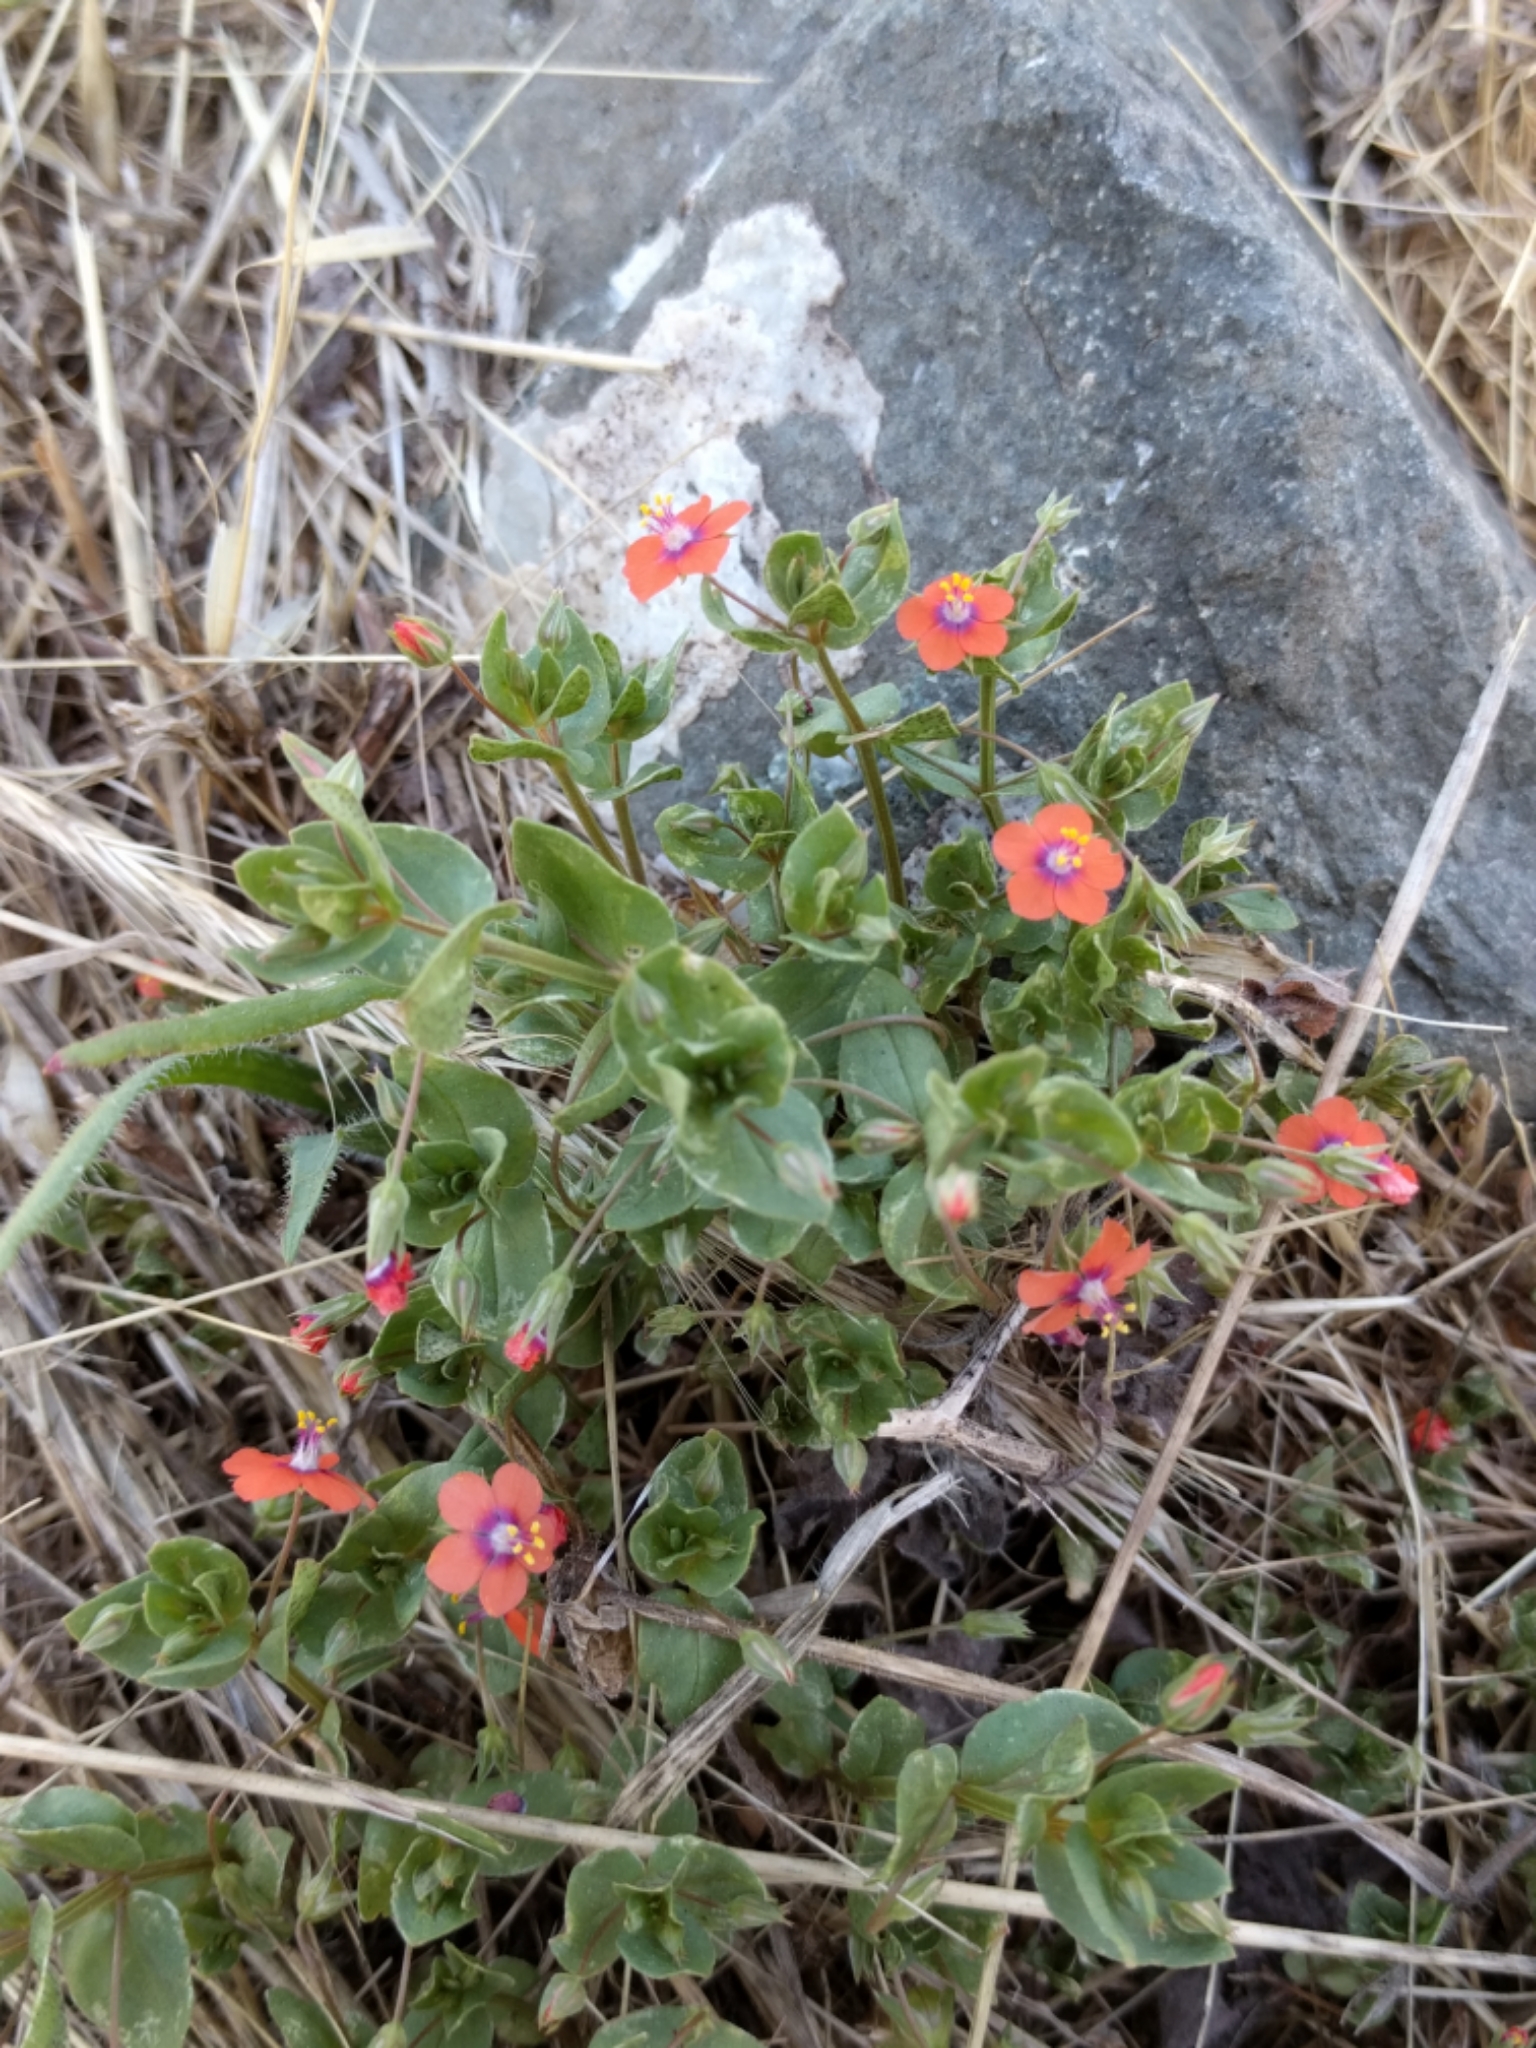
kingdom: Plantae
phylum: Tracheophyta
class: Magnoliopsida
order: Ericales
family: Primulaceae
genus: Lysimachia
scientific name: Lysimachia arvensis
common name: Scarlet pimpernel
